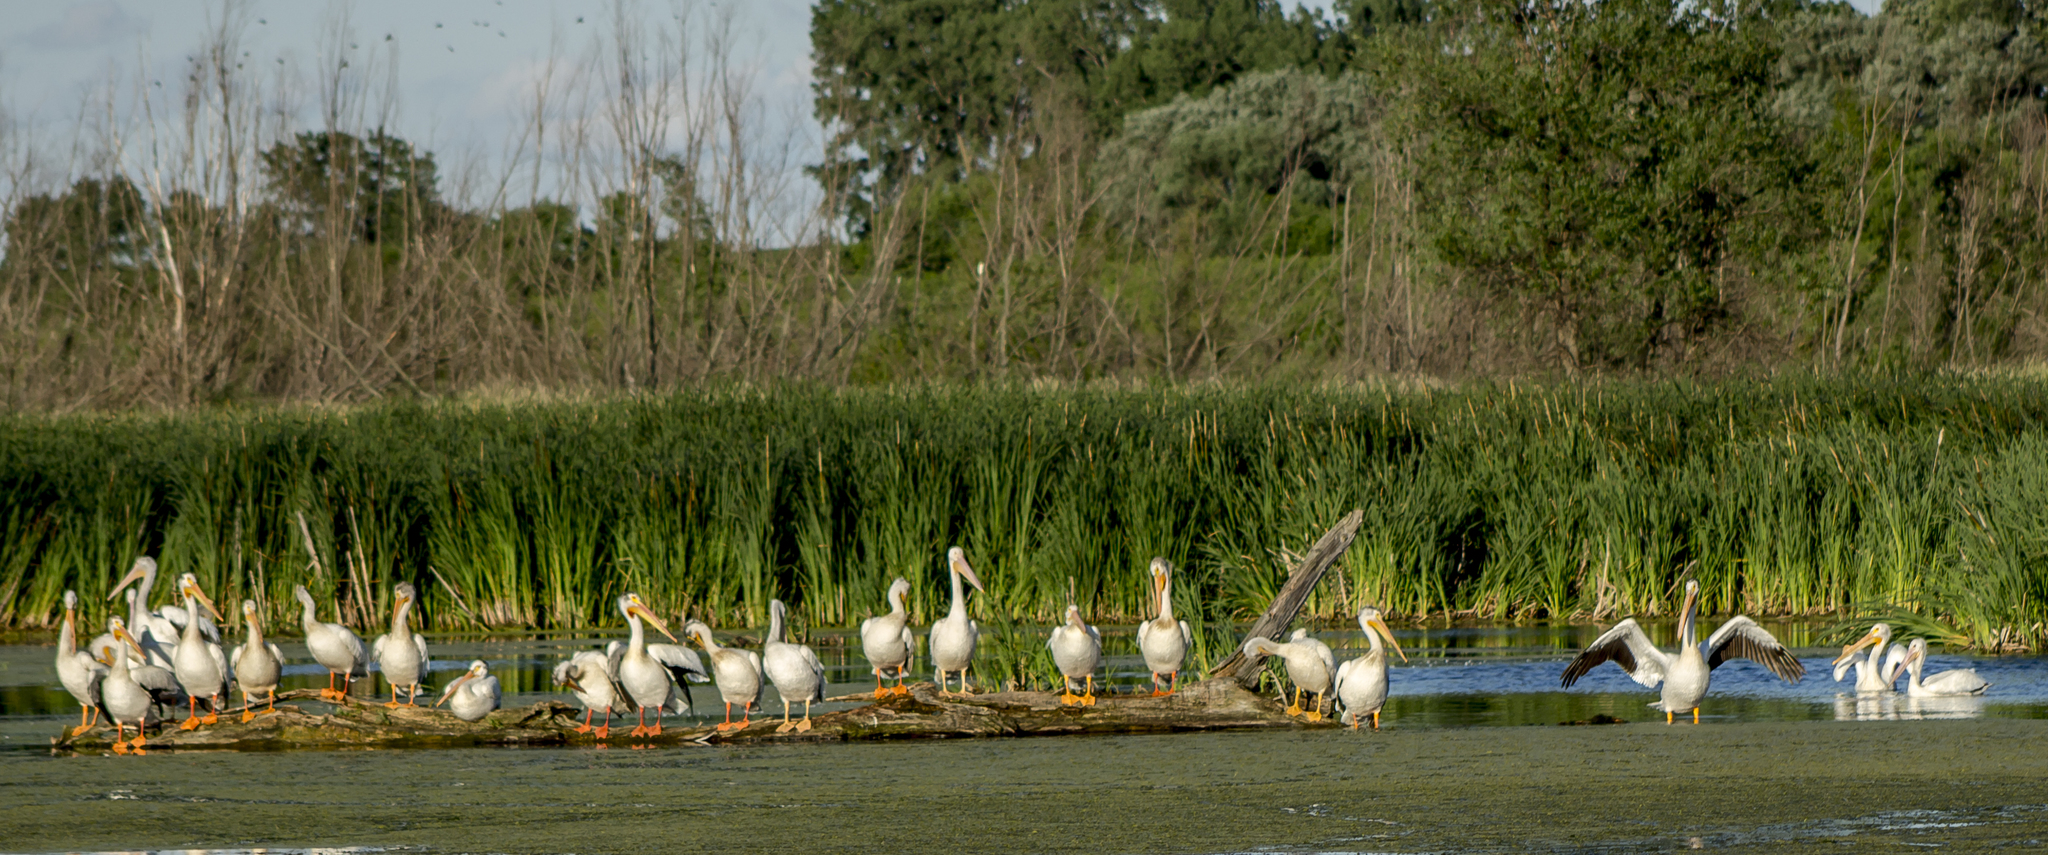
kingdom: Animalia
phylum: Chordata
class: Aves
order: Pelecaniformes
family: Pelecanidae
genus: Pelecanus
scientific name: Pelecanus erythrorhynchos
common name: American white pelican
